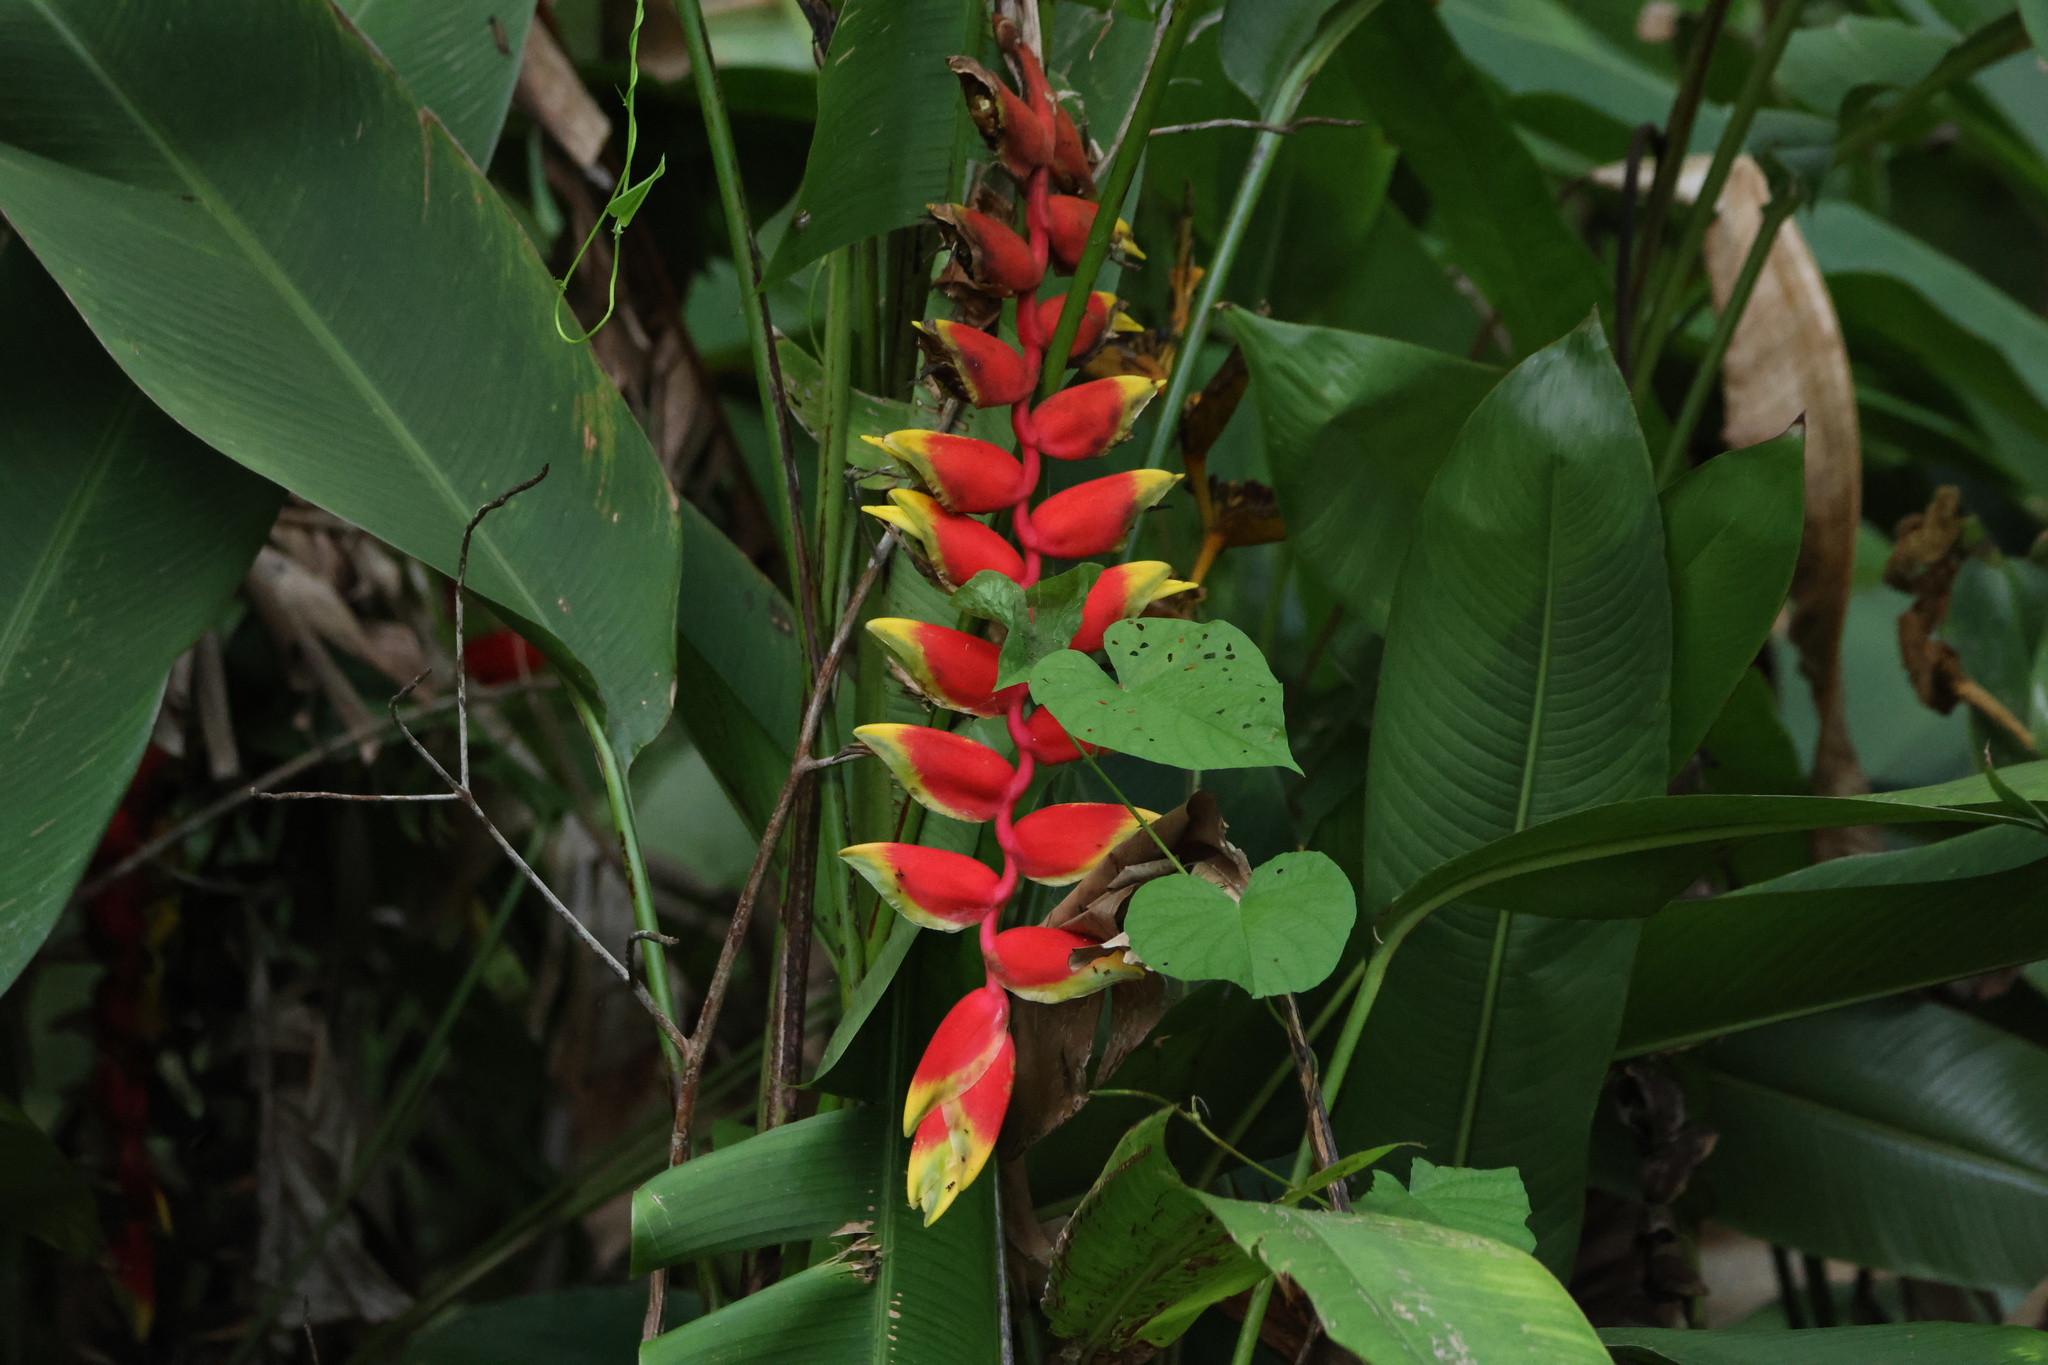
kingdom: Plantae
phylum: Tracheophyta
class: Liliopsida
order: Zingiberales
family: Heliconiaceae
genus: Heliconia
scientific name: Heliconia rostrata
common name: False bird of paradise
